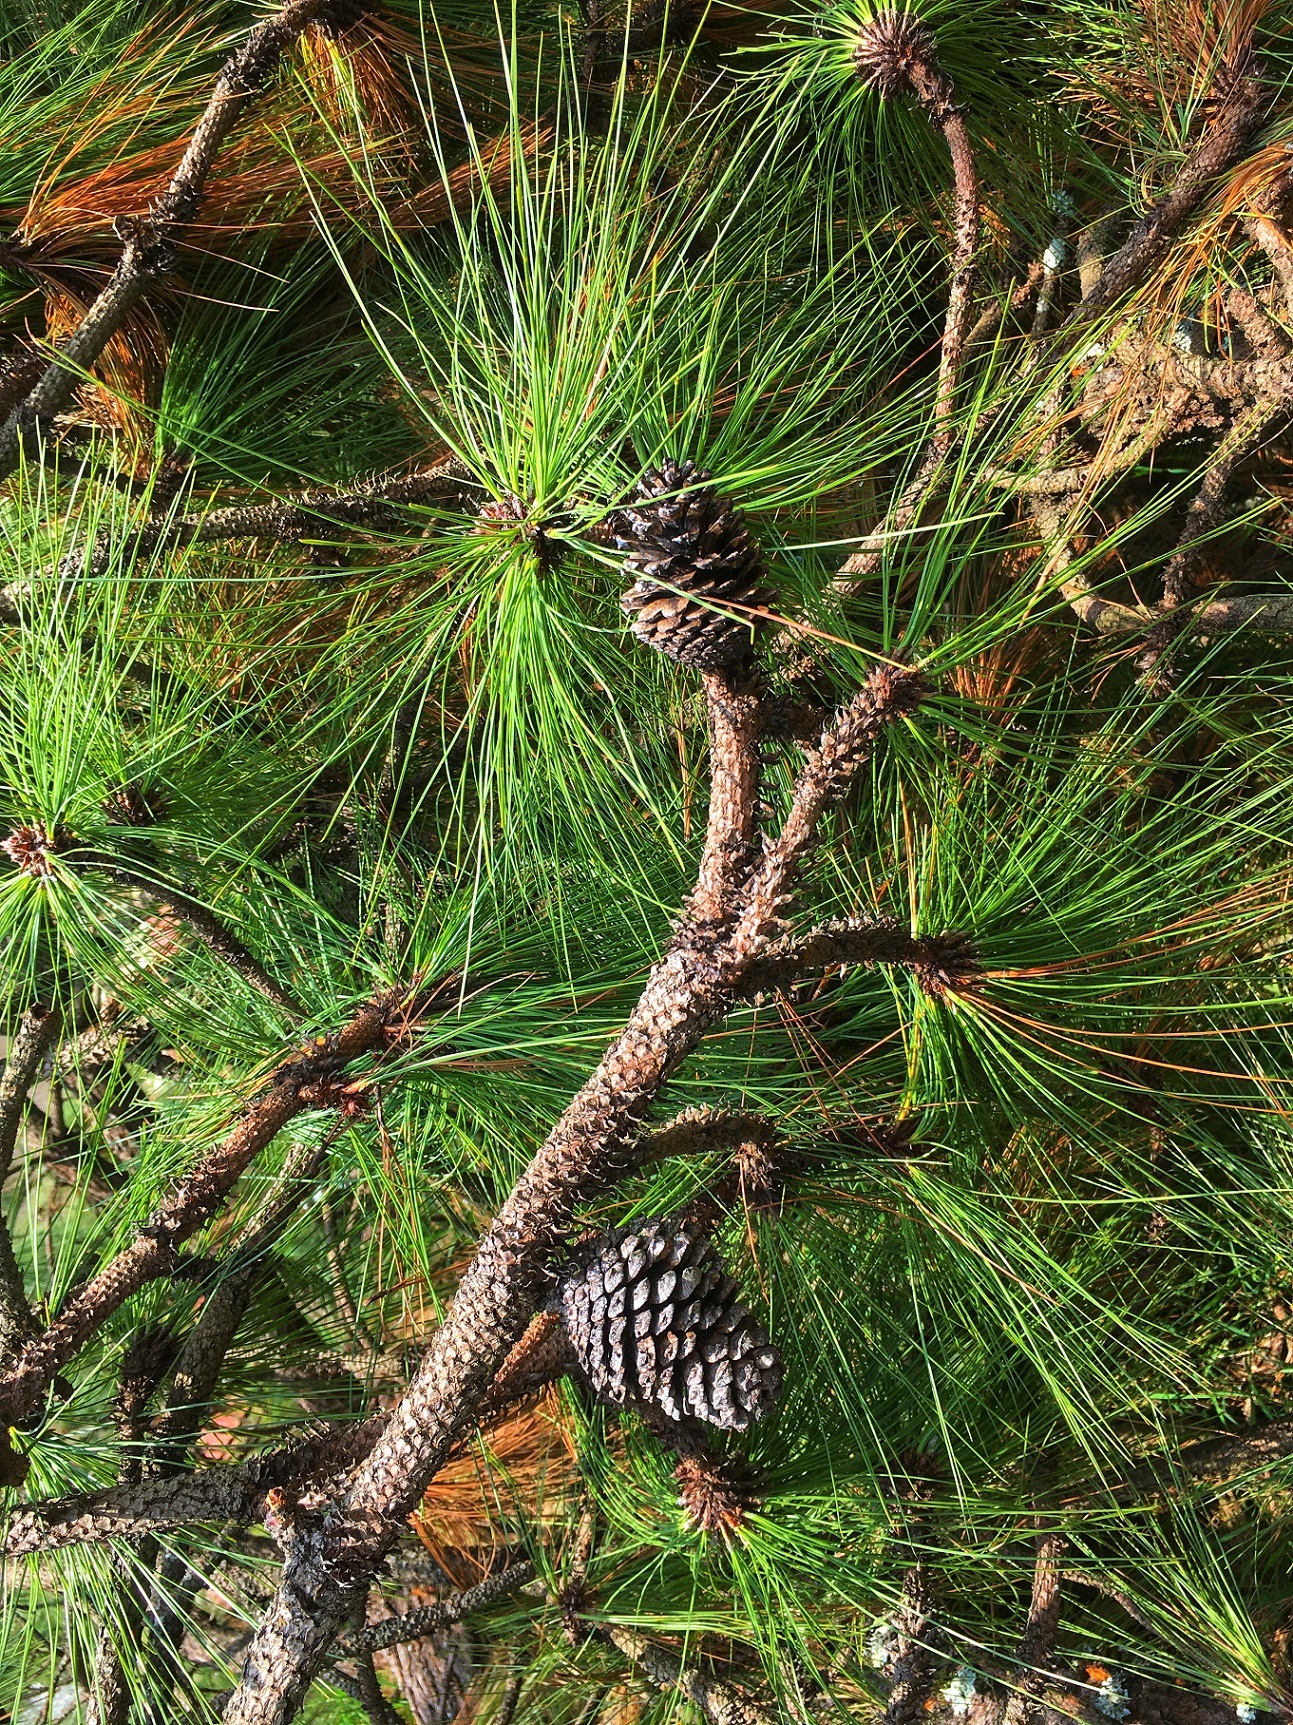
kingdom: Plantae
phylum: Tracheophyta
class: Pinopsida
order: Pinales
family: Pinaceae
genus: Pinus
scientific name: Pinus montezumae
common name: Montezuma pine
